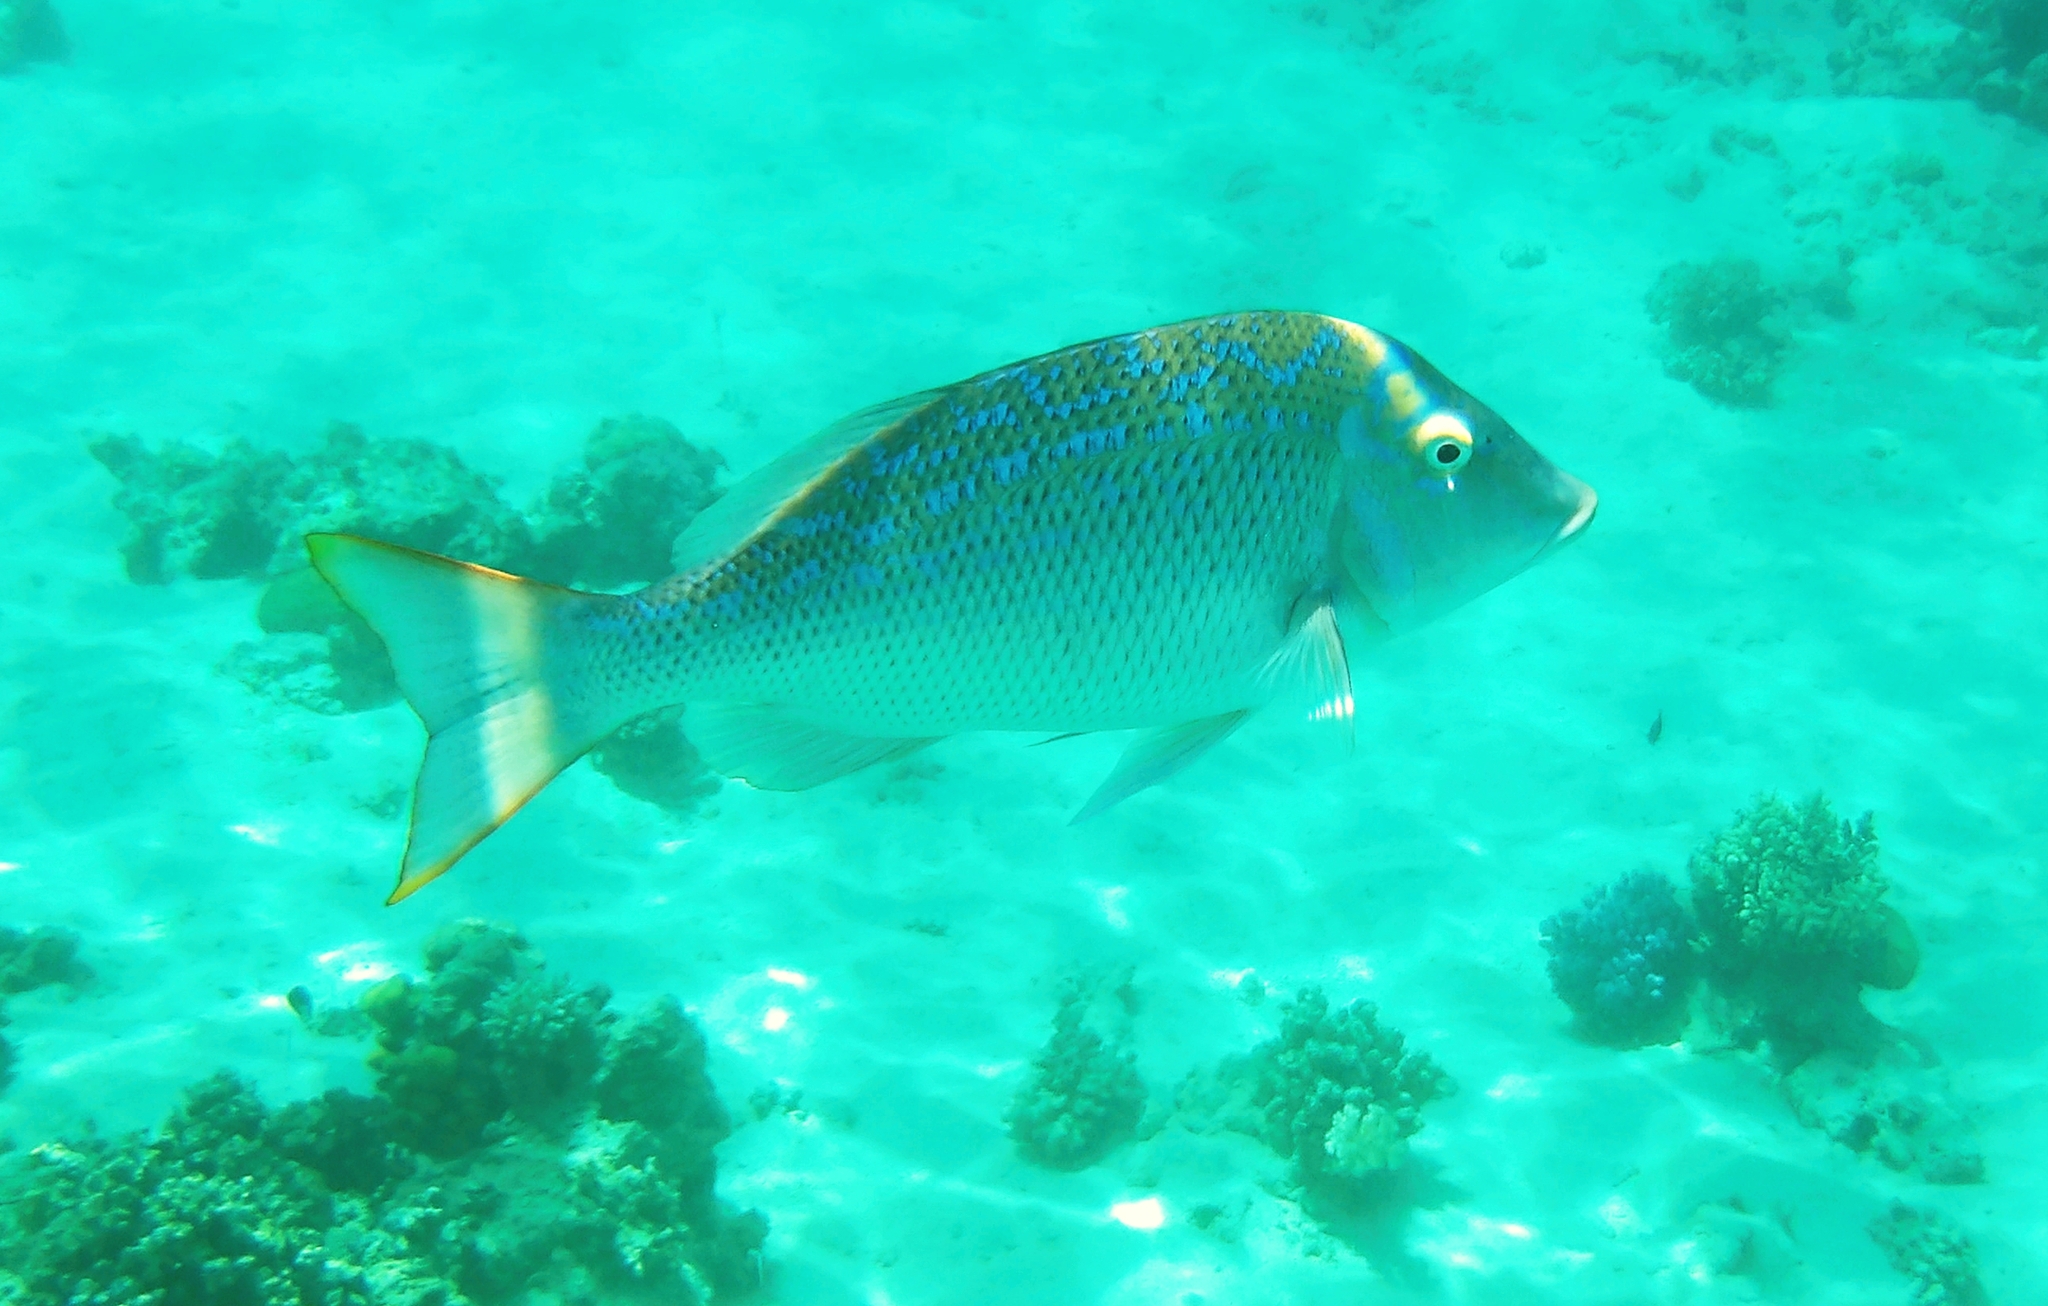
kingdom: Animalia
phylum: Chordata
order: Perciformes
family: Lethrinidae
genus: Lethrinus
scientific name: Lethrinus nebulosus
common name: Spangled emperor
